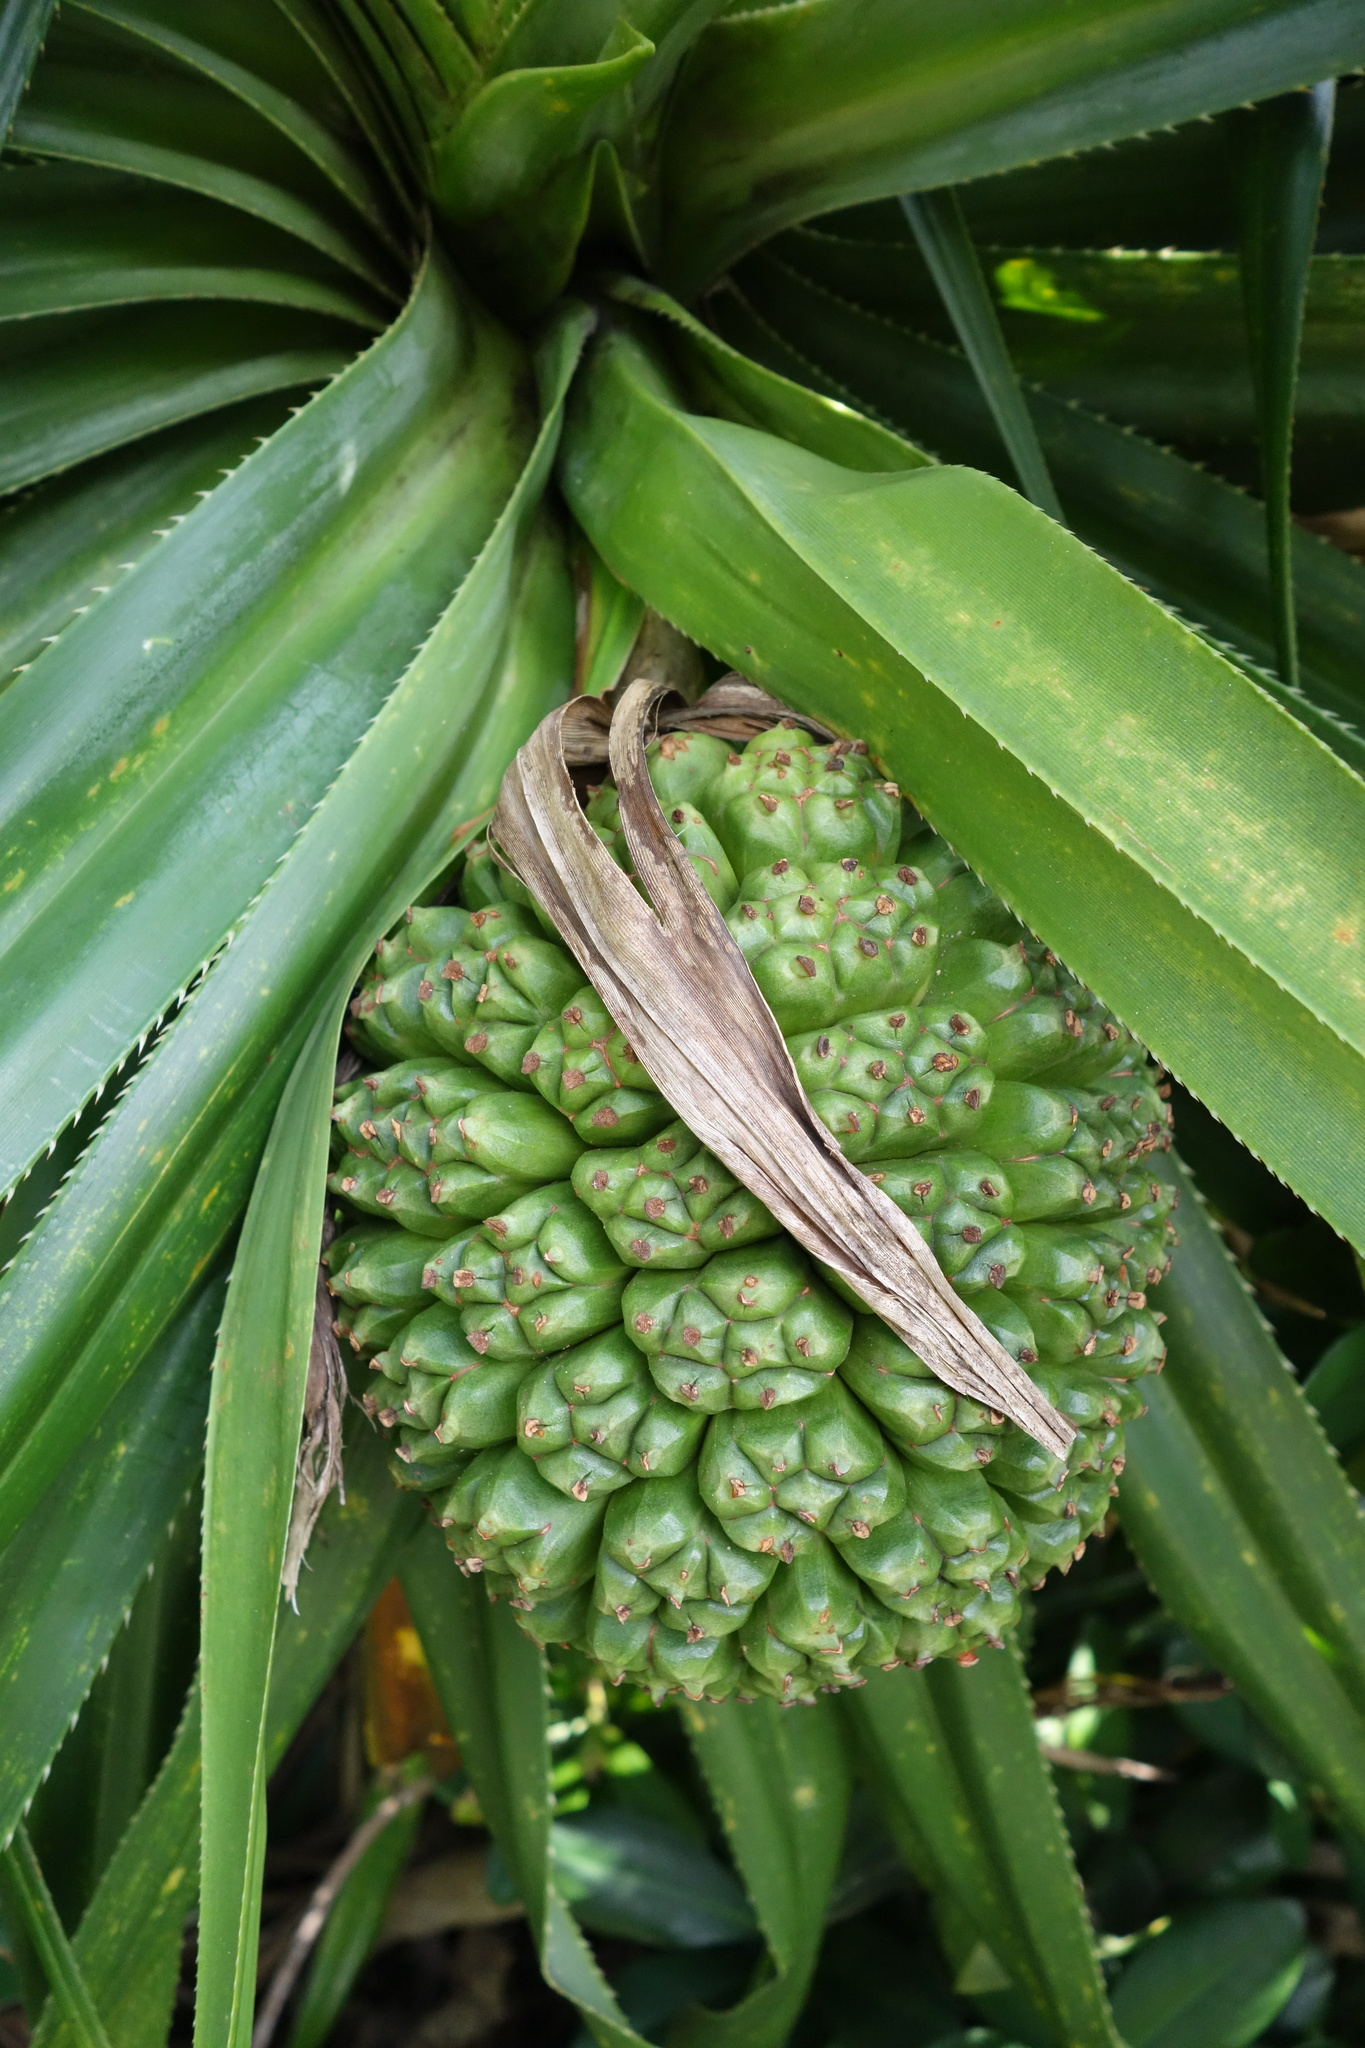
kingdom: Plantae
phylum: Tracheophyta
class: Liliopsida
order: Pandanales
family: Pandanaceae
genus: Pandanus
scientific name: Pandanus odorifer
